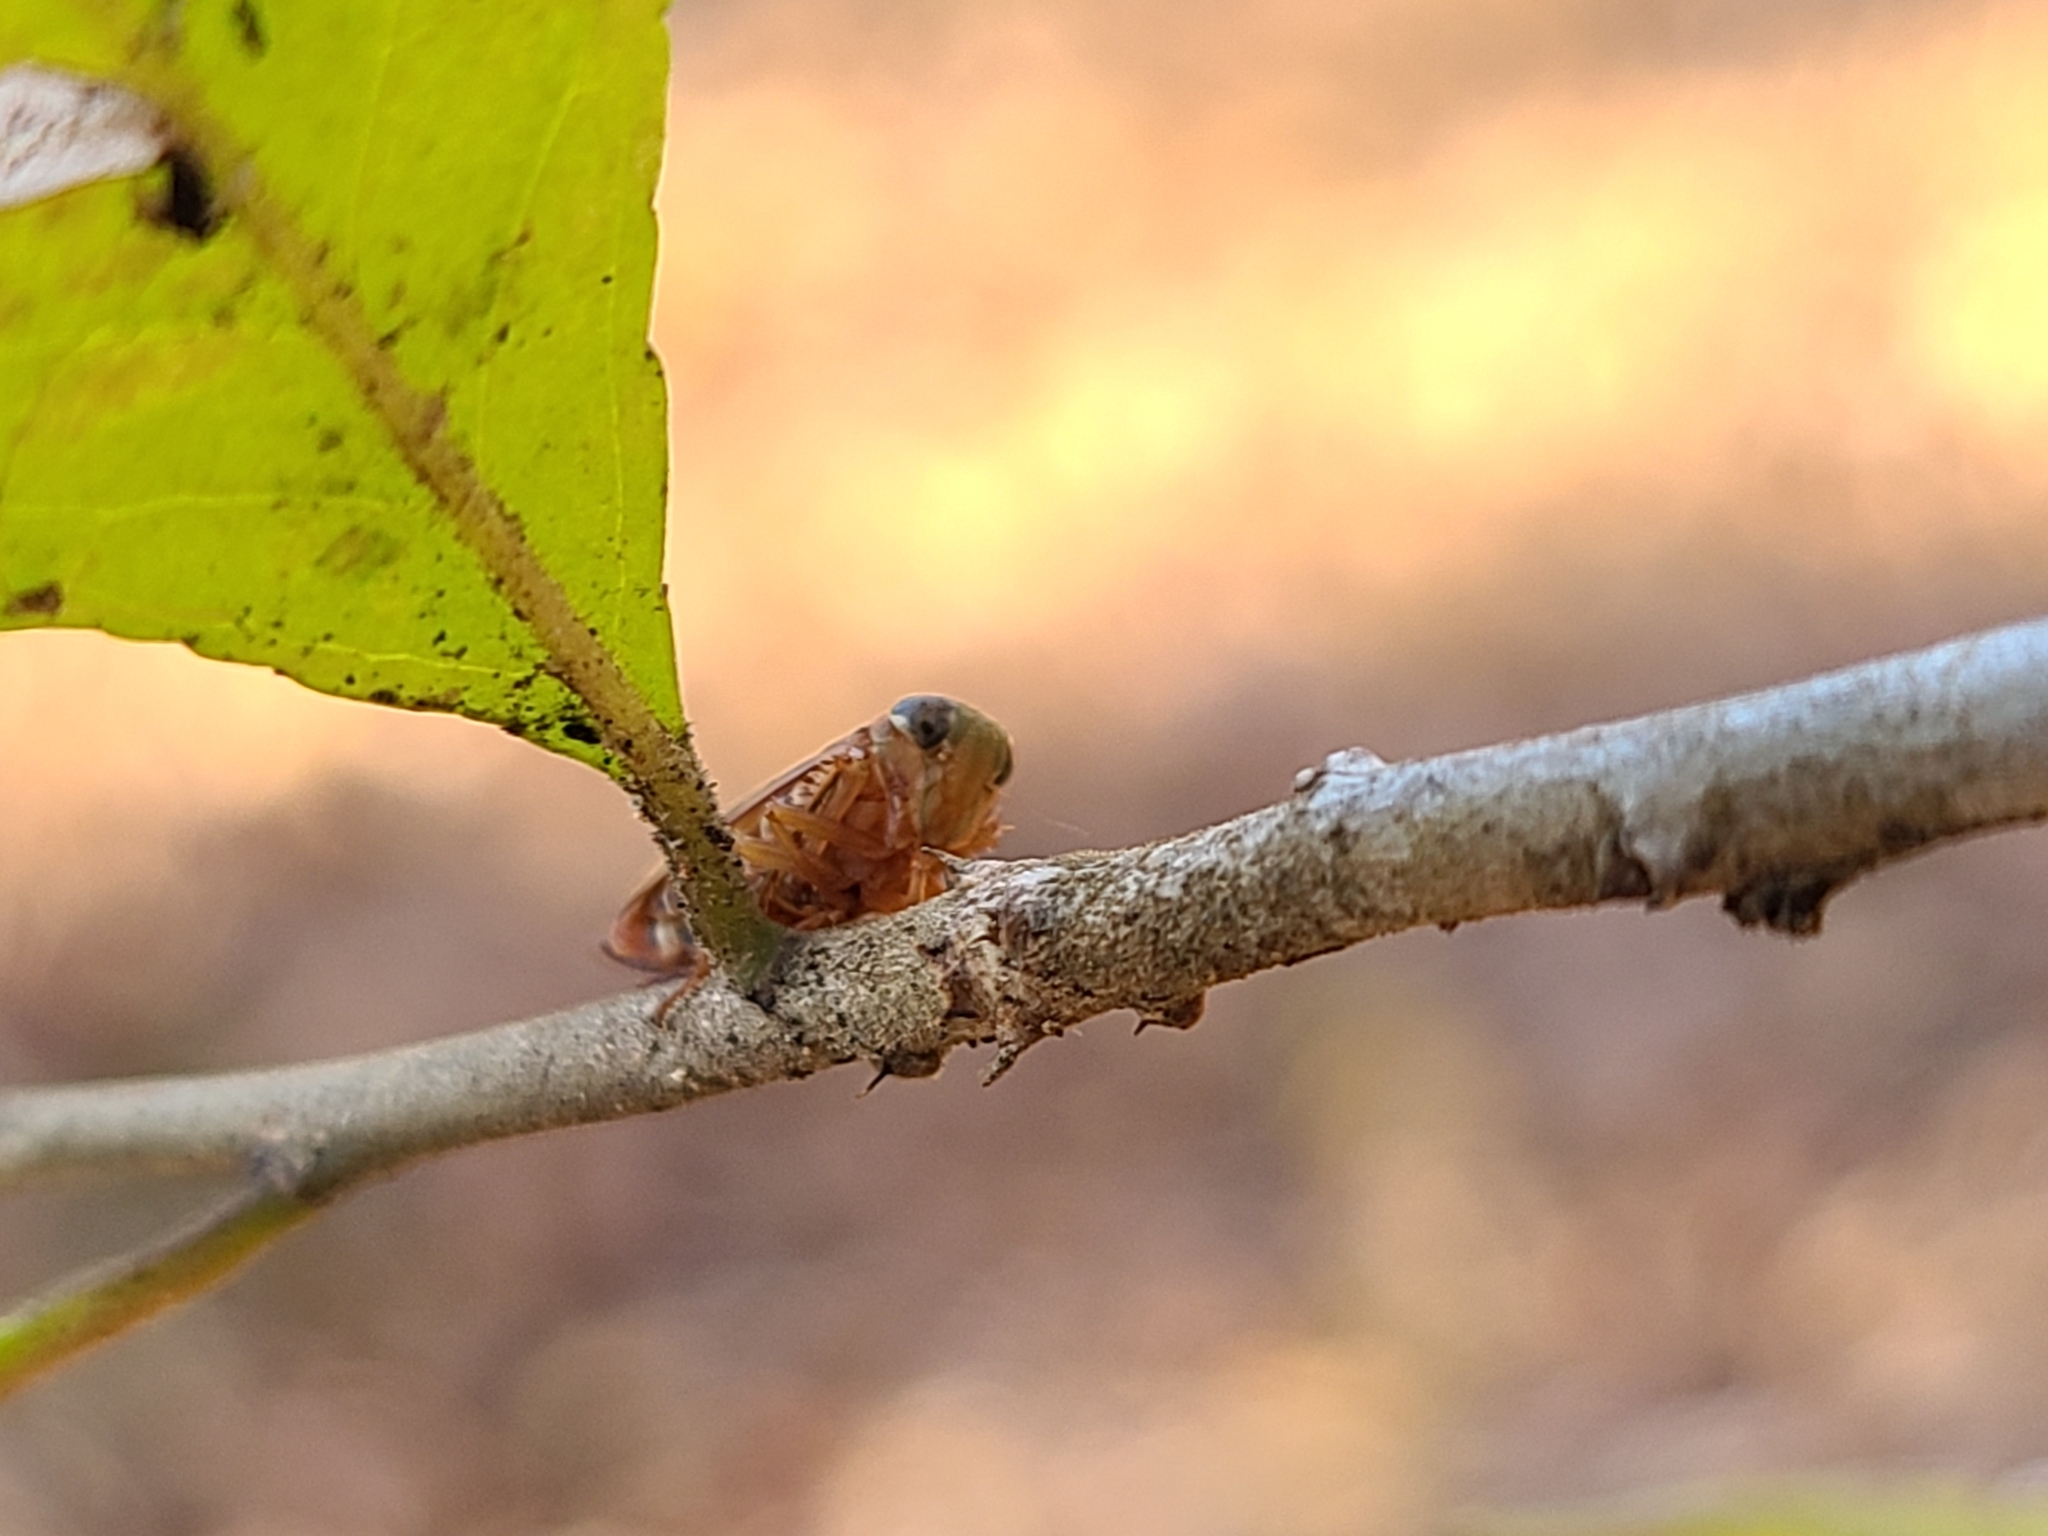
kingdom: Animalia
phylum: Arthropoda
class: Insecta
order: Hemiptera
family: Cicadellidae
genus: Jikradia
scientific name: Jikradia olitoria
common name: Coppery leafhopper
